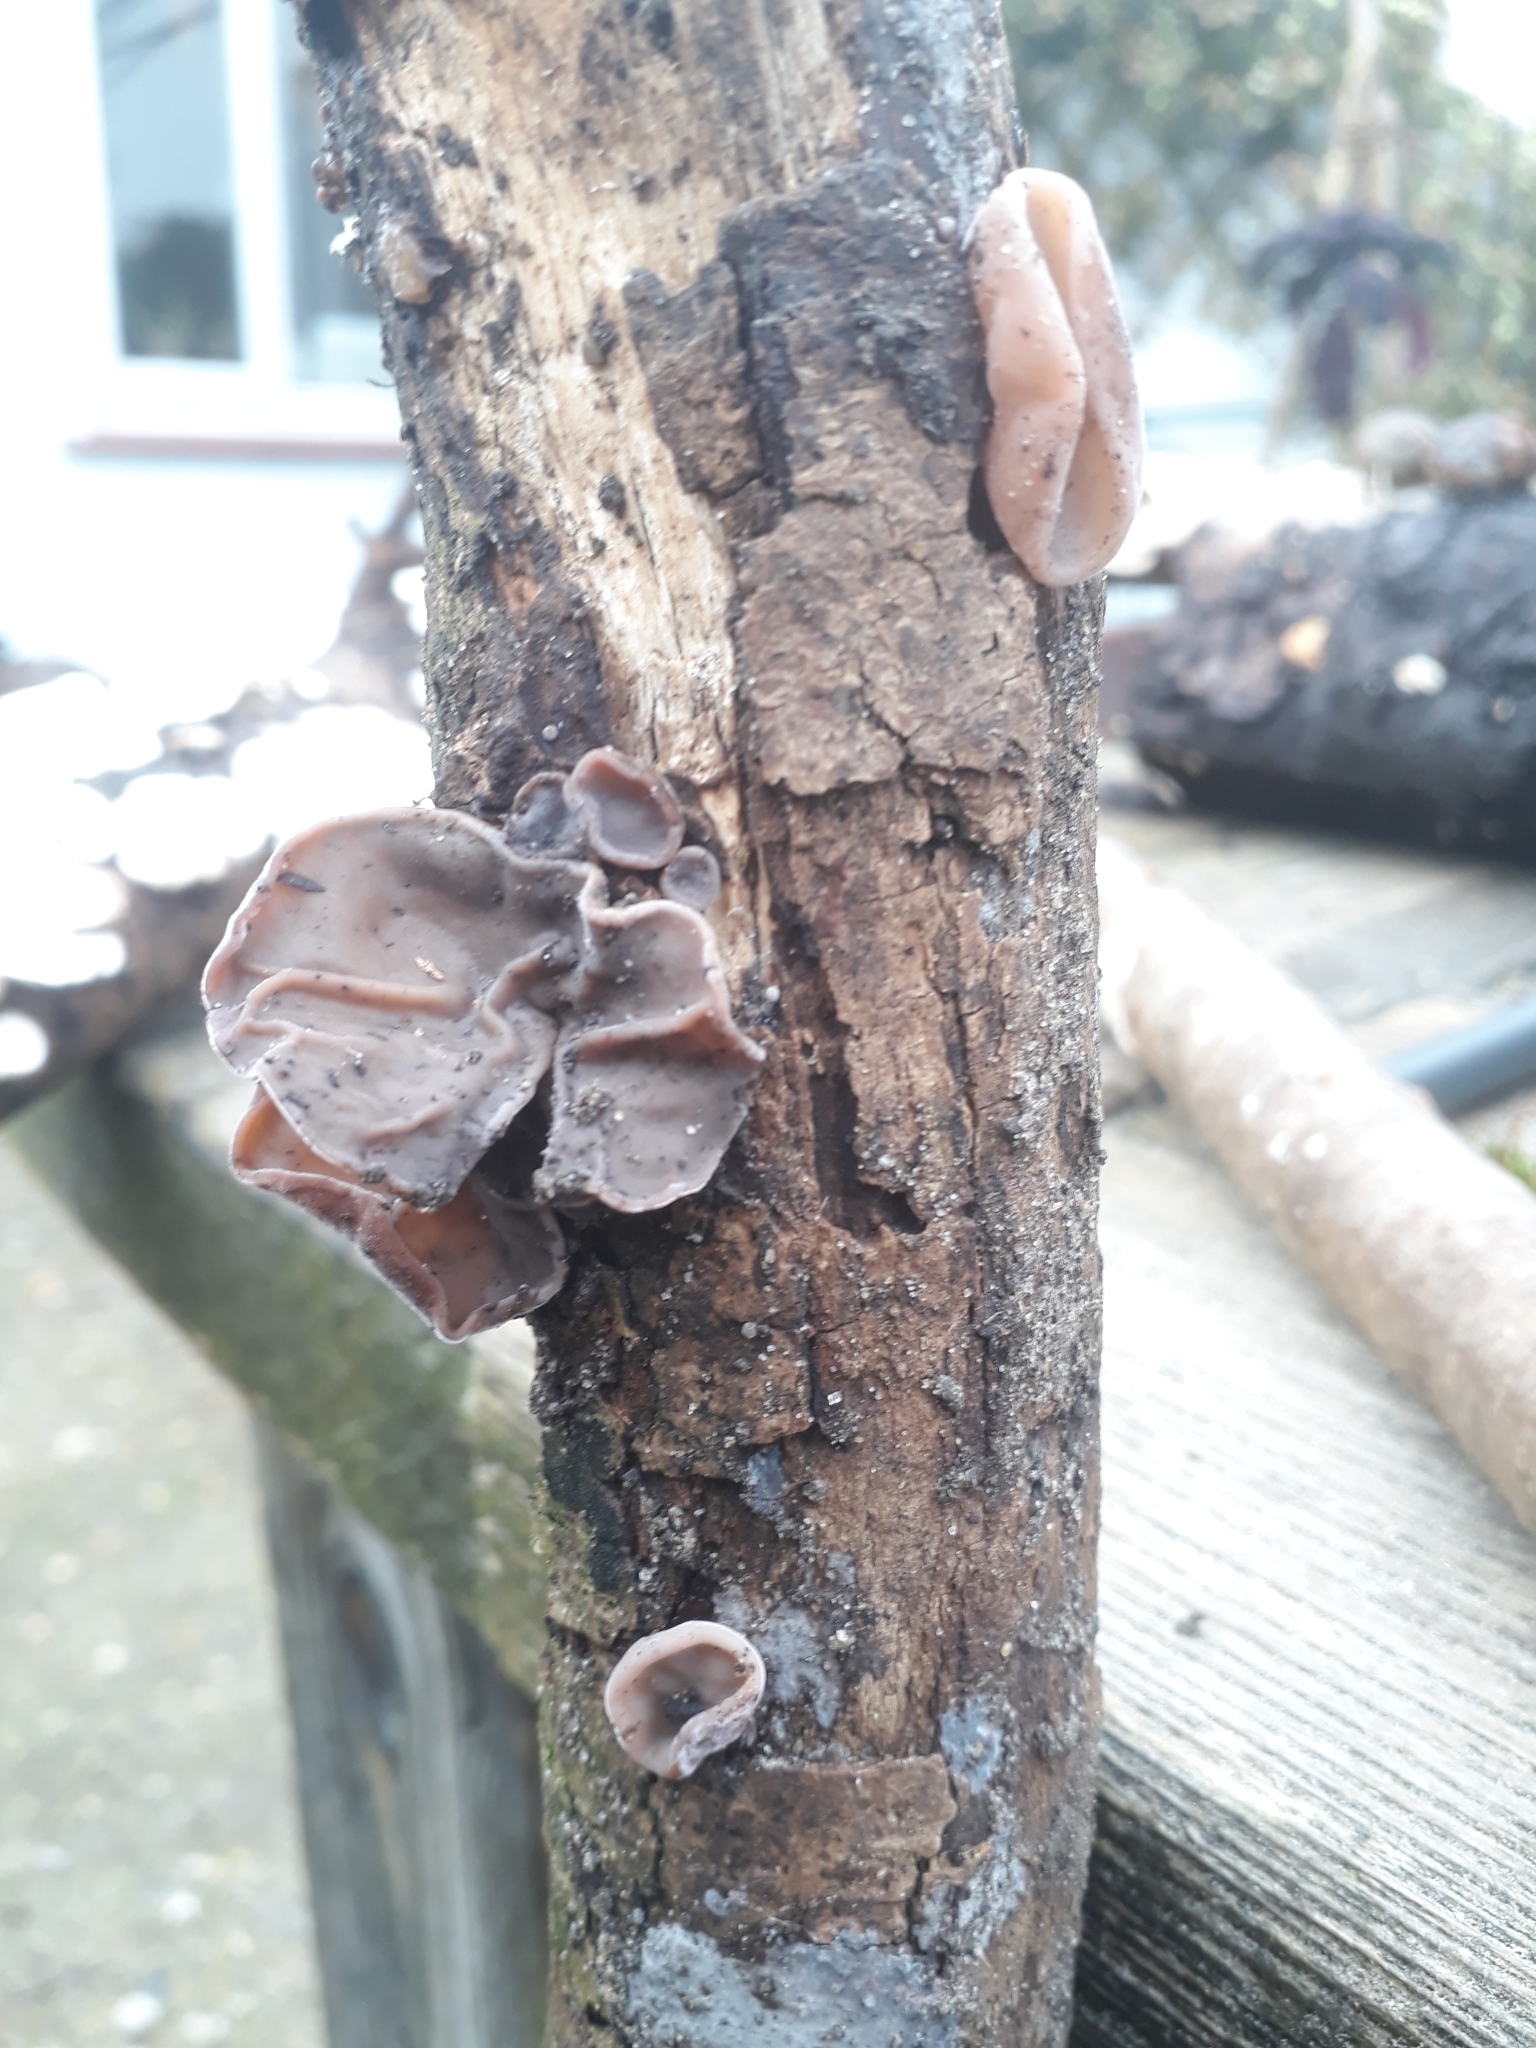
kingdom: Fungi
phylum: Basidiomycota
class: Agaricomycetes
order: Auriculariales
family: Auriculariaceae
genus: Auricularia
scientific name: Auricularia auricula-judae
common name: Jelly ear
